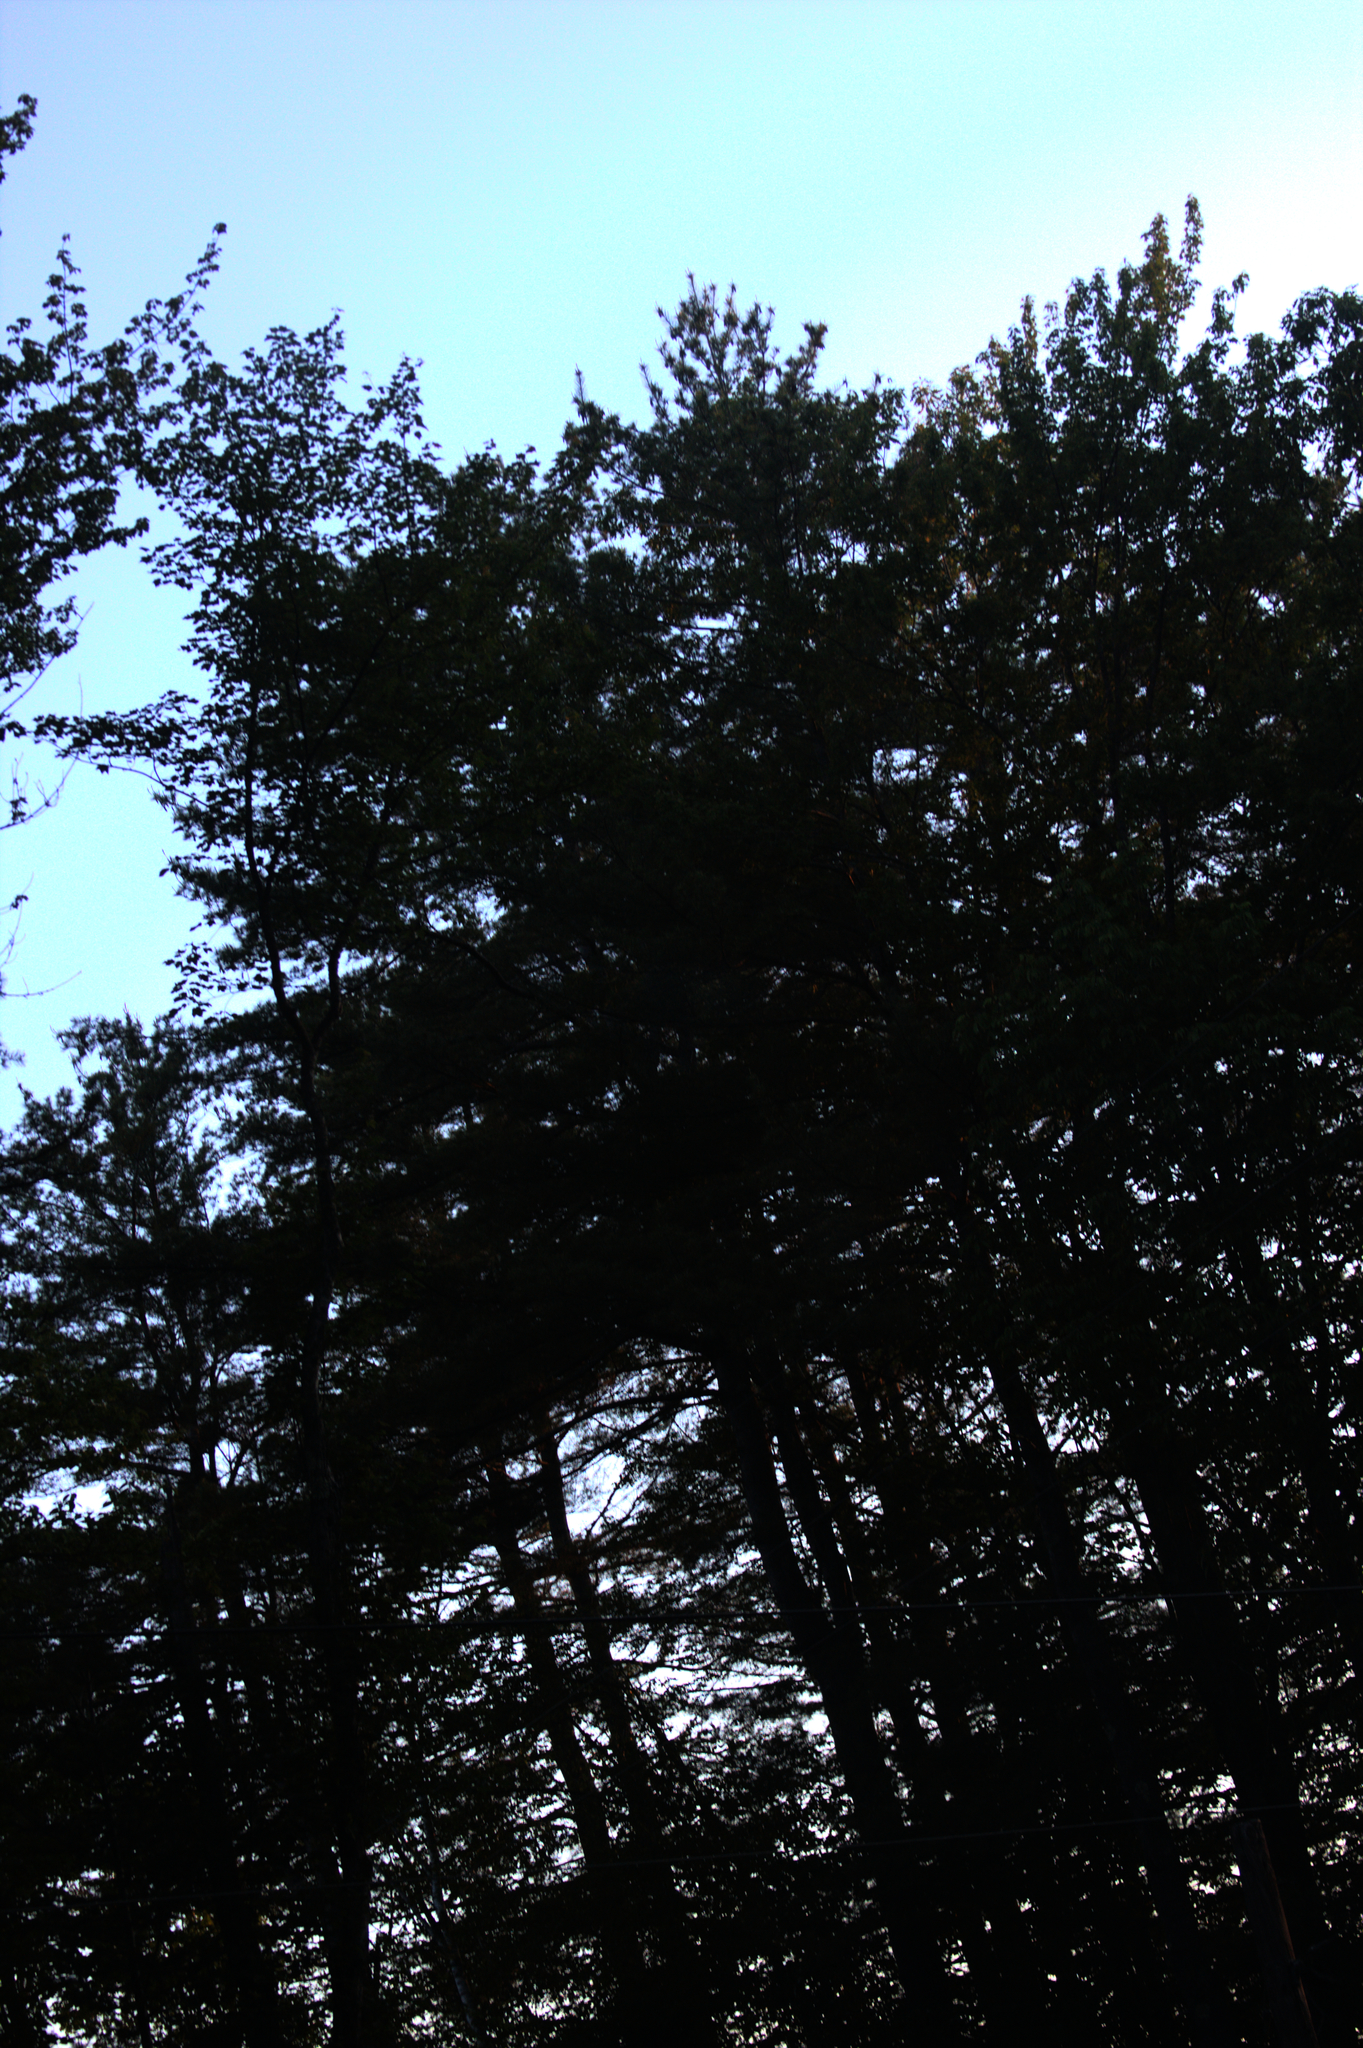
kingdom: Plantae
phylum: Tracheophyta
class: Pinopsida
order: Pinales
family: Pinaceae
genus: Pinus
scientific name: Pinus strobus
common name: Weymouth pine
